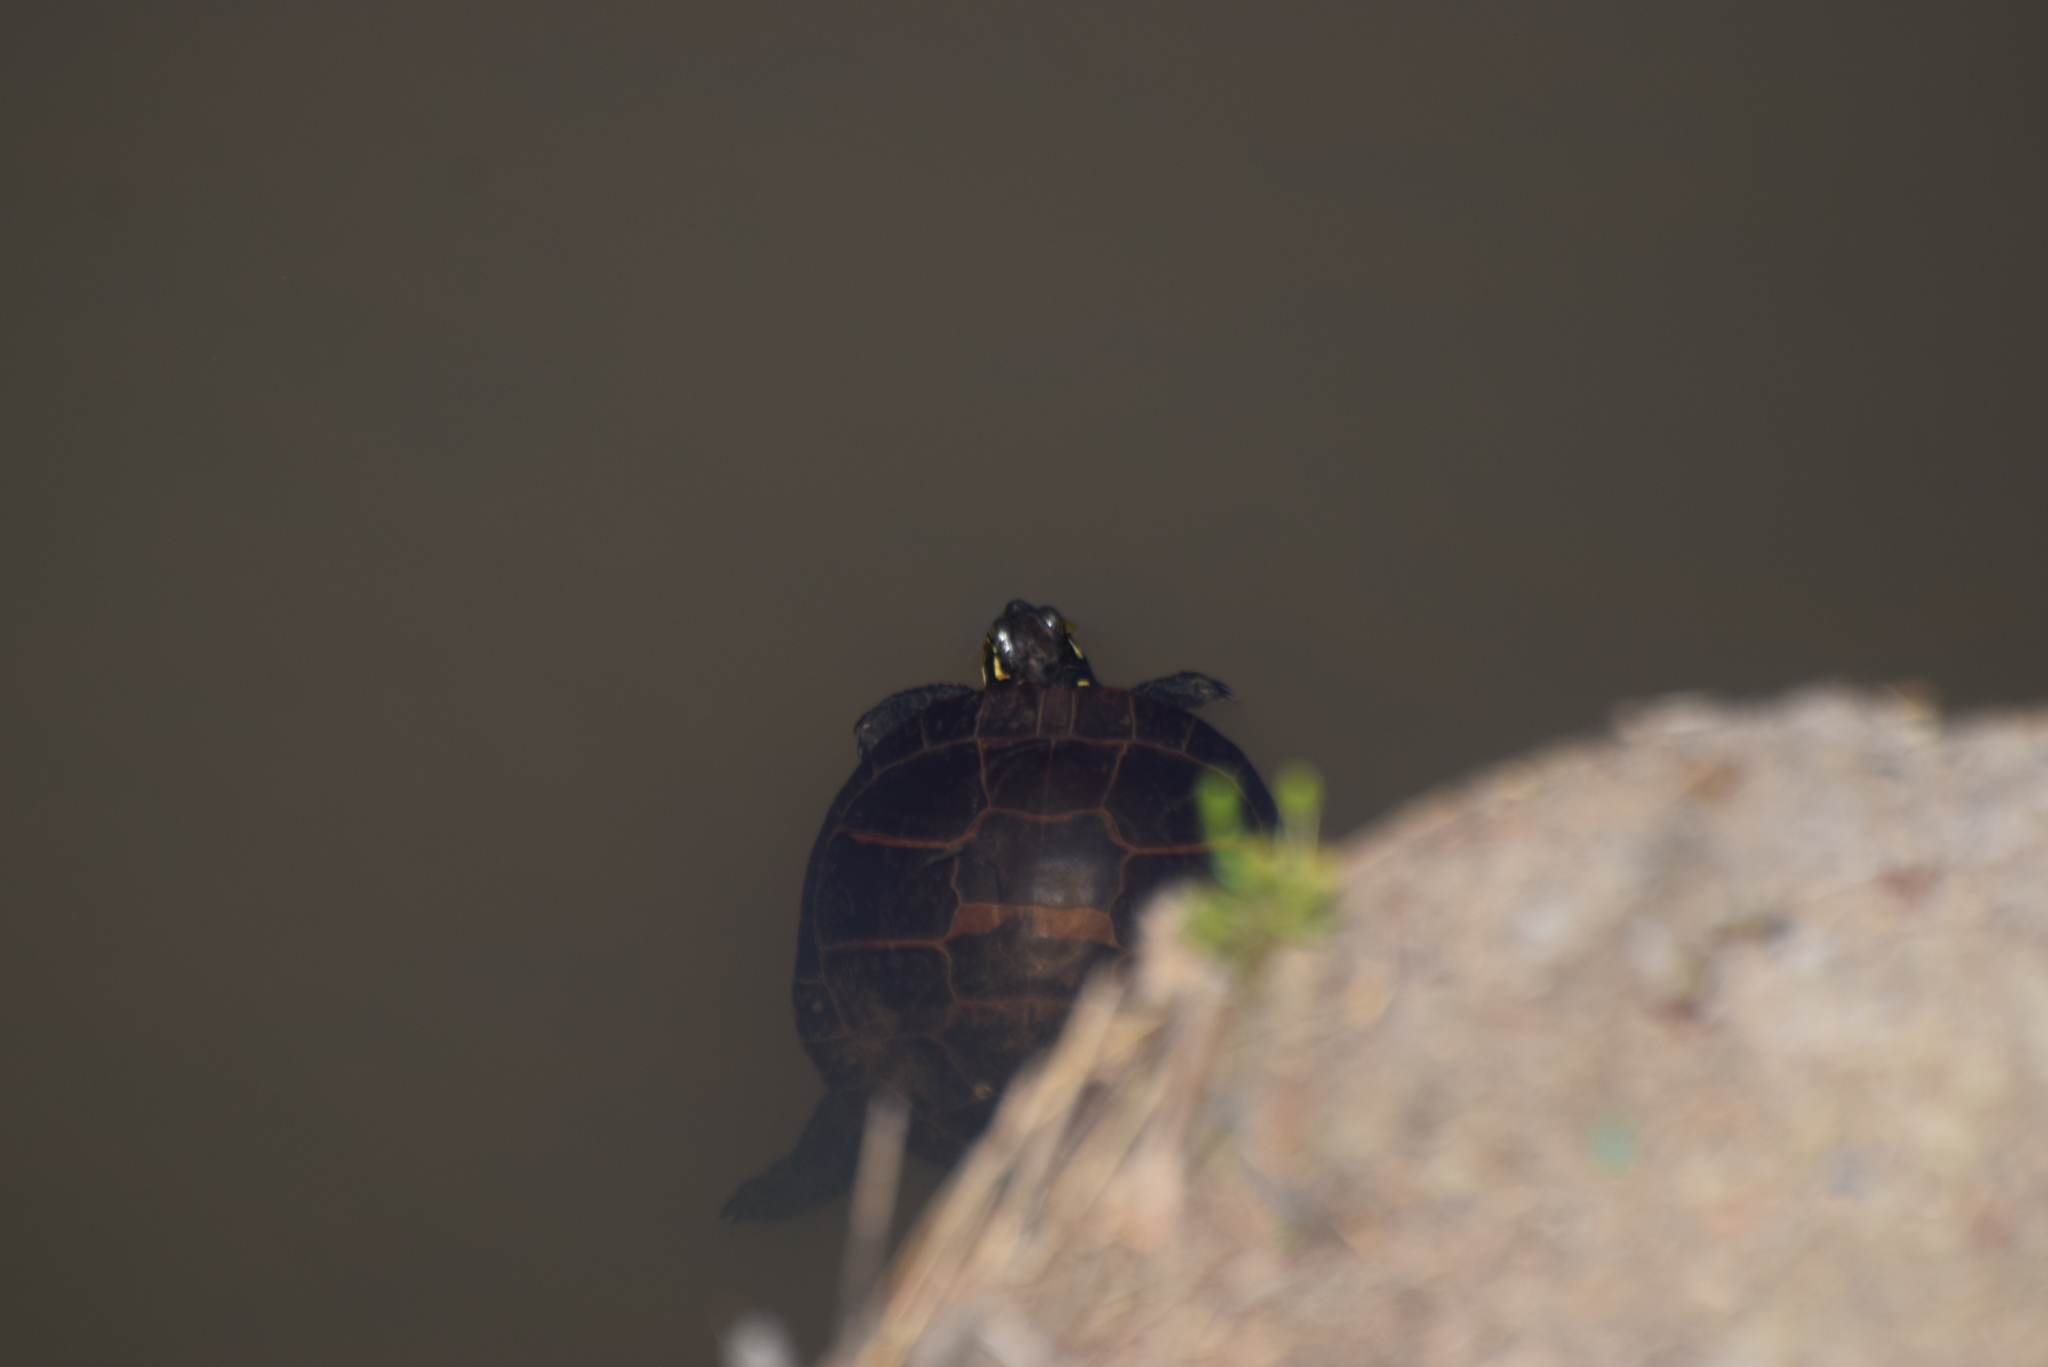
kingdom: Animalia
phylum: Chordata
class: Testudines
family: Emydidae
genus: Chrysemys
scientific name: Chrysemys picta
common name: Painted turtle
